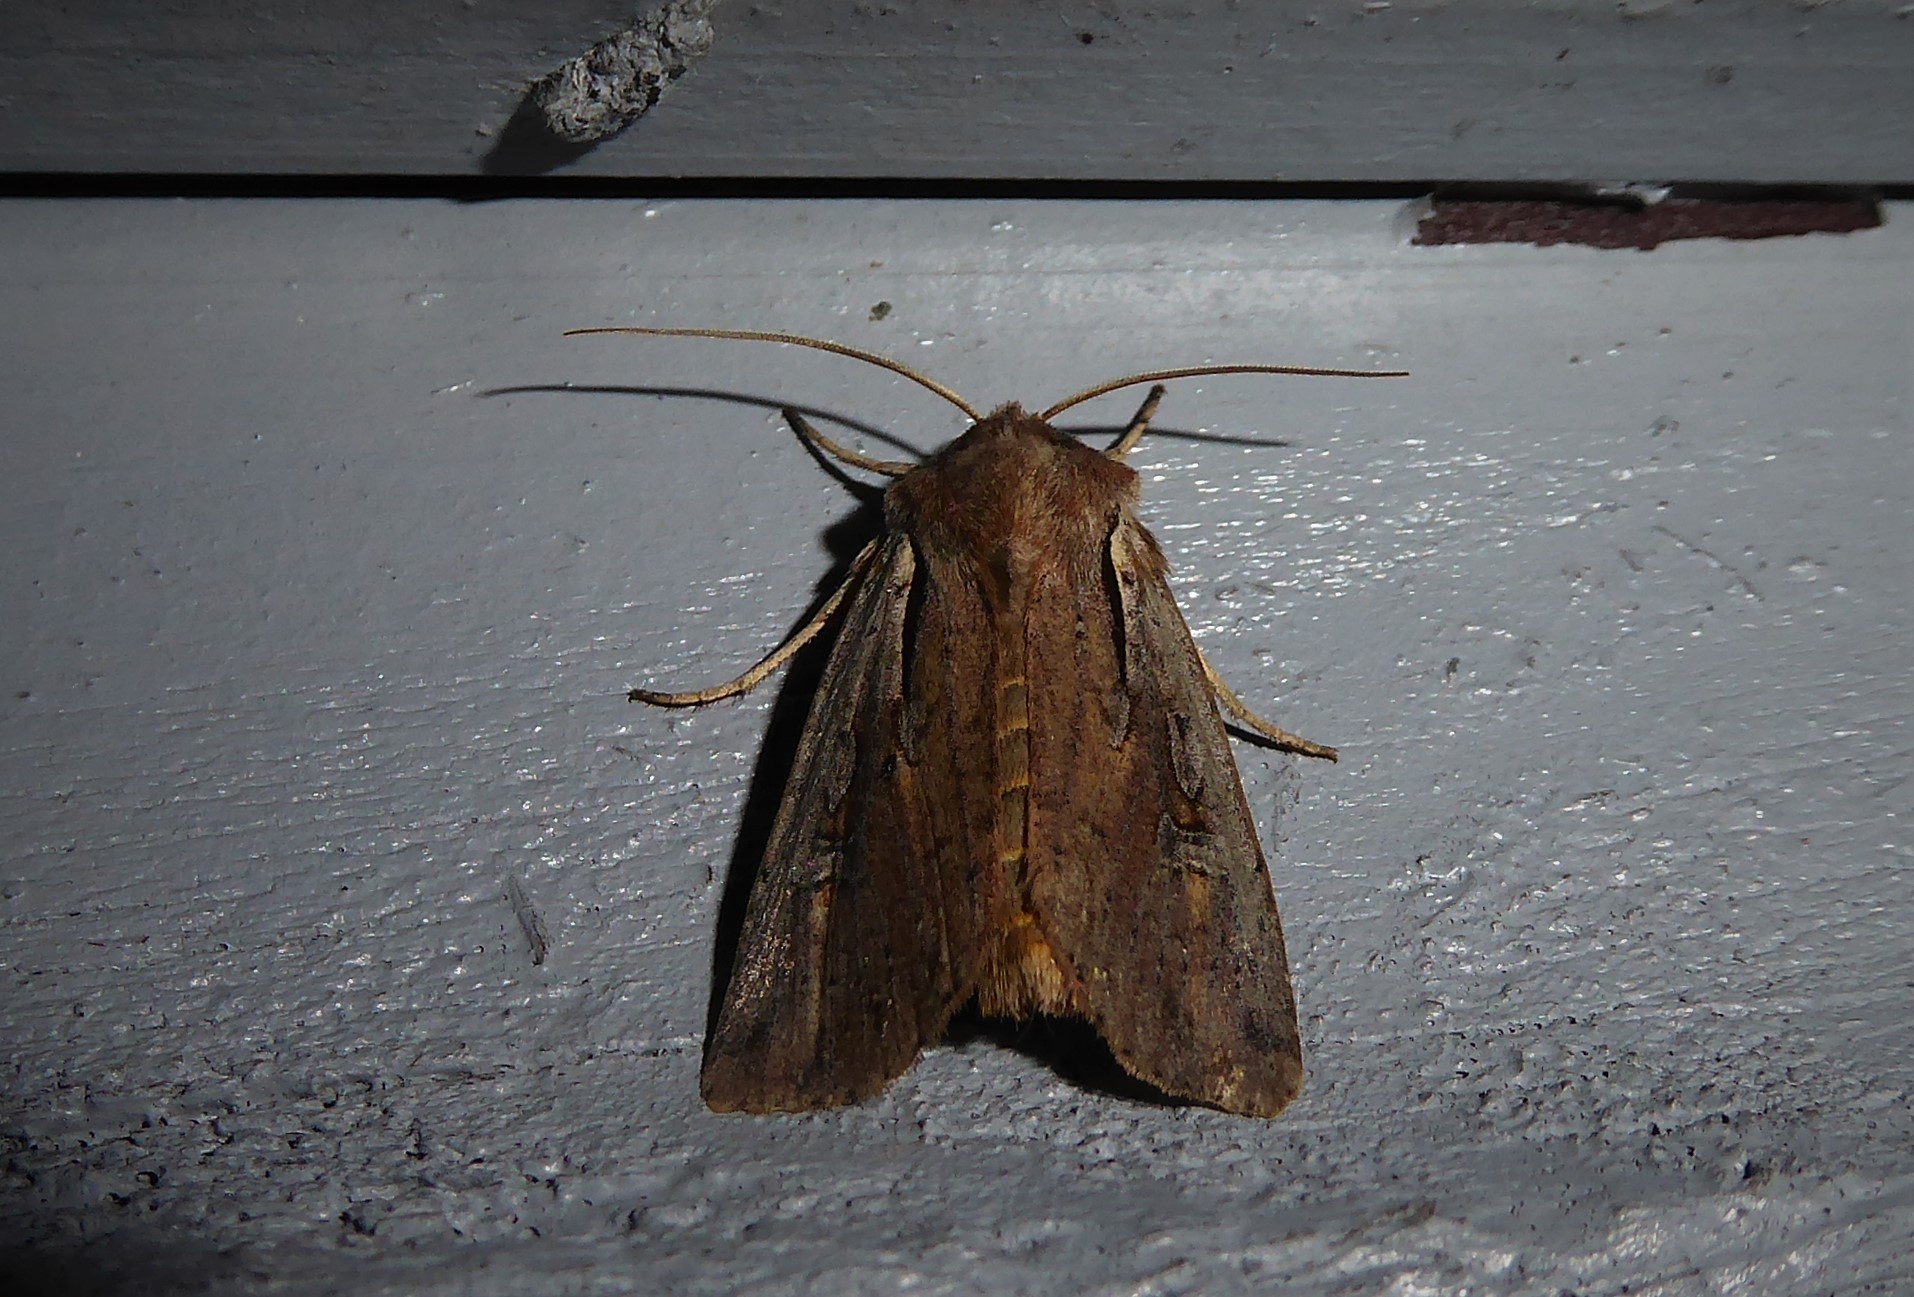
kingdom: Animalia
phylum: Arthropoda
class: Insecta
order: Lepidoptera
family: Noctuidae
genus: Ichneutica
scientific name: Ichneutica atristriga
